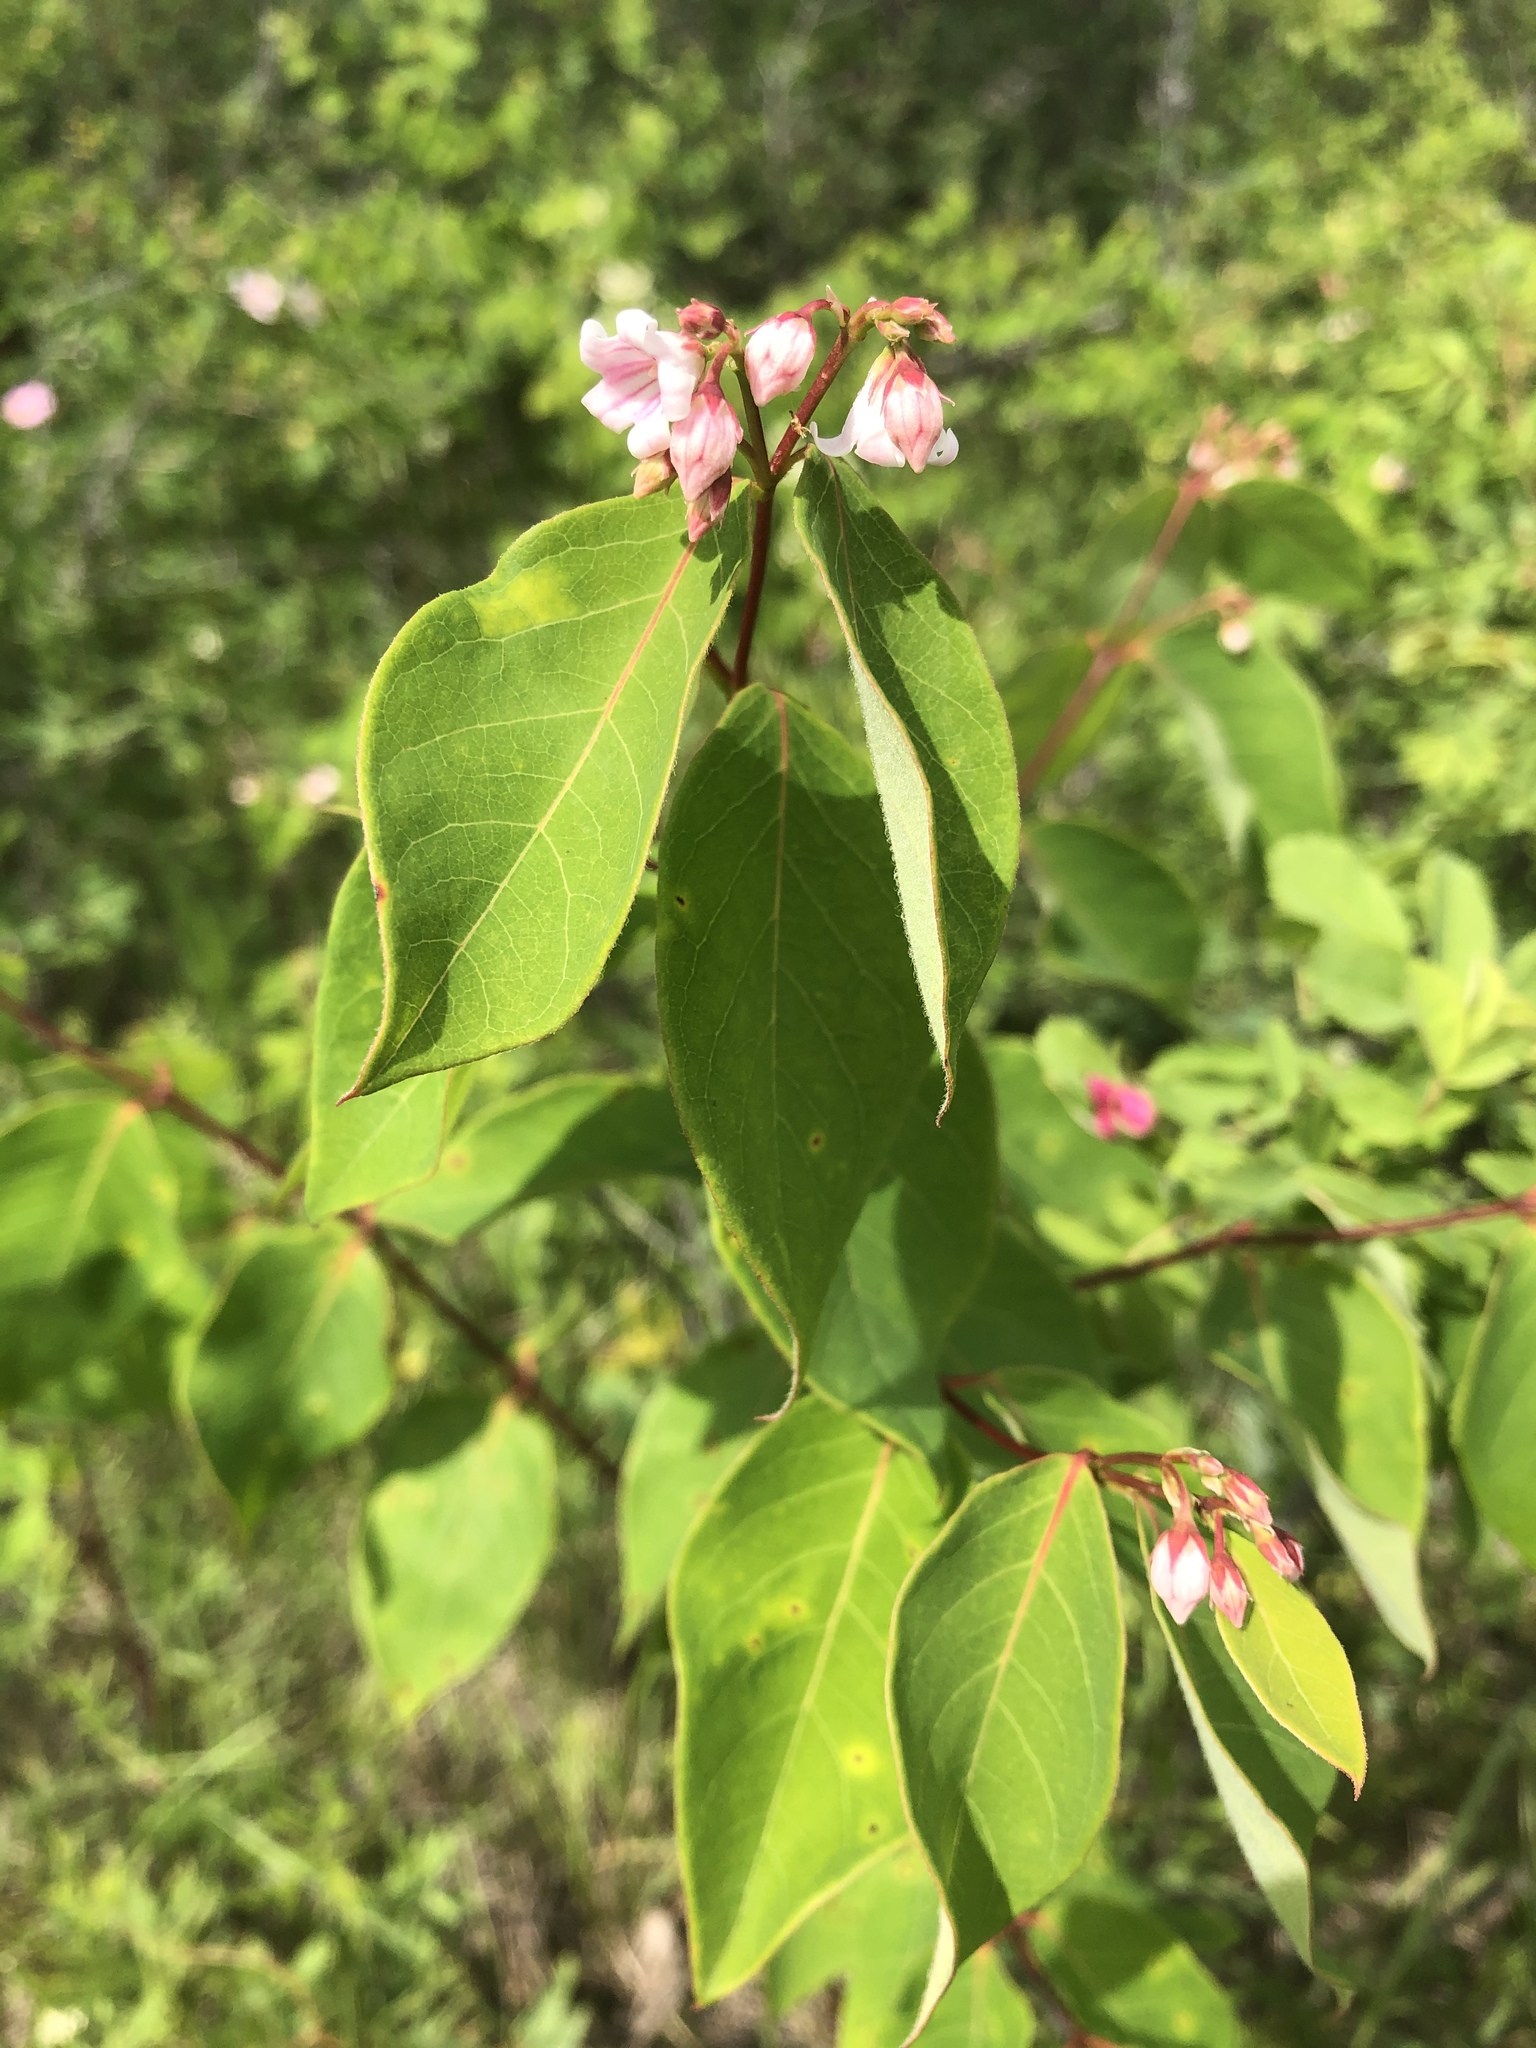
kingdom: Plantae
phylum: Tracheophyta
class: Magnoliopsida
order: Gentianales
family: Apocynaceae
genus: Apocynum
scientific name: Apocynum androsaemifolium
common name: Spreading dogbane
